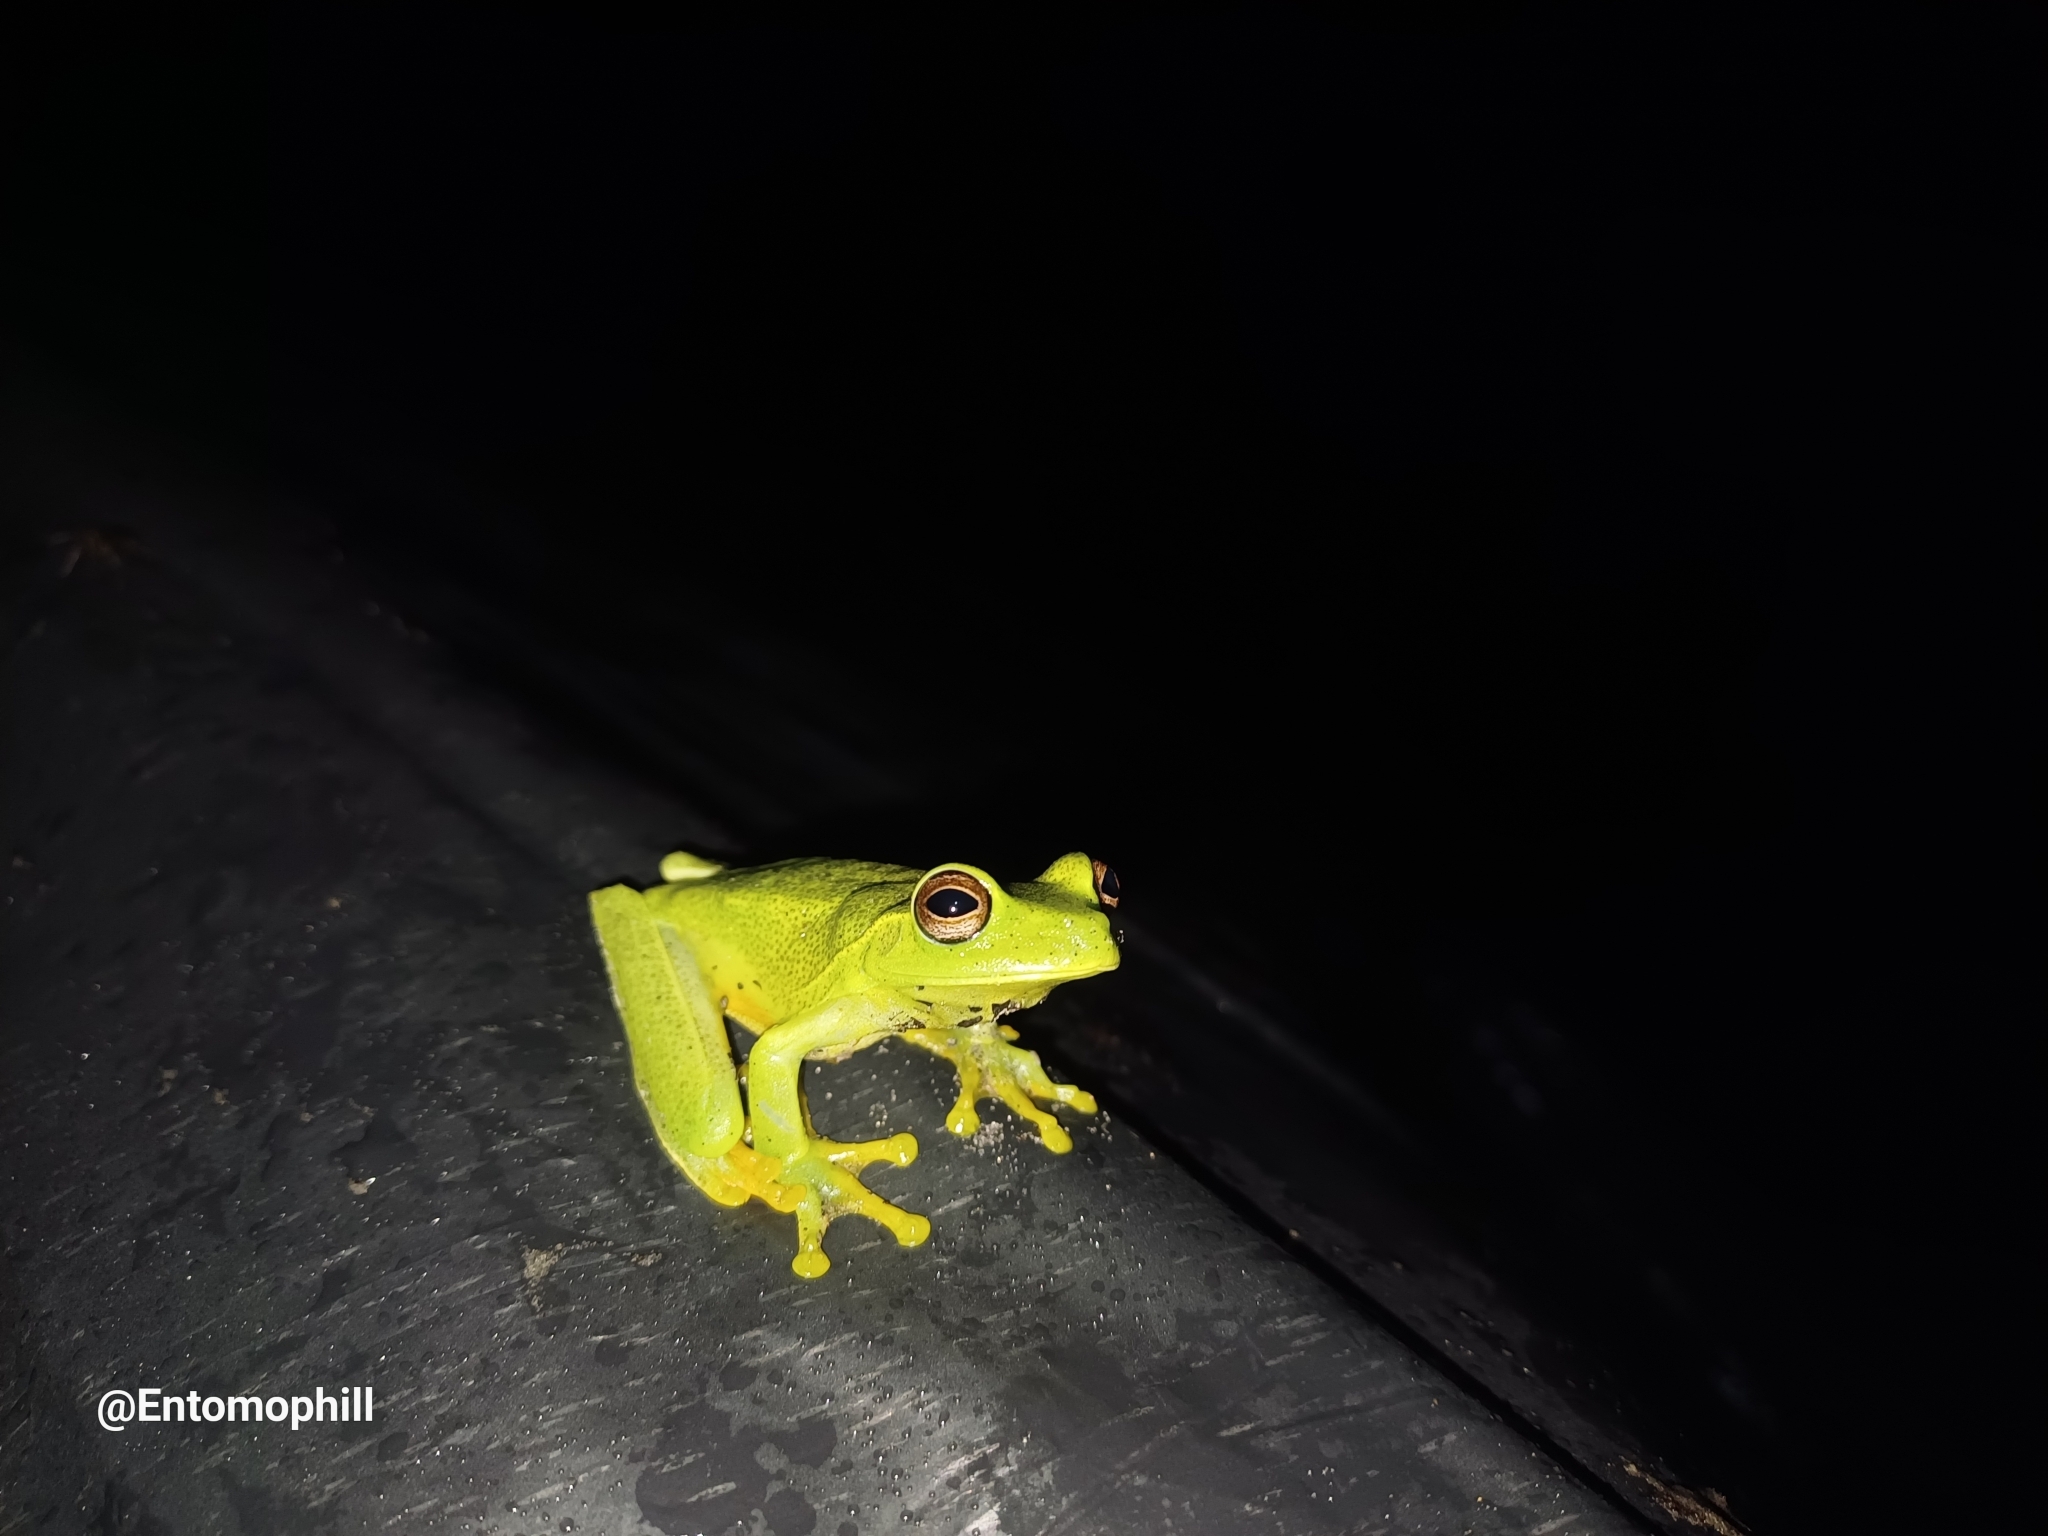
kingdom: Animalia
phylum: Chordata
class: Amphibia
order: Anura
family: Hylidae
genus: Boana
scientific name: Boana albomarginata
